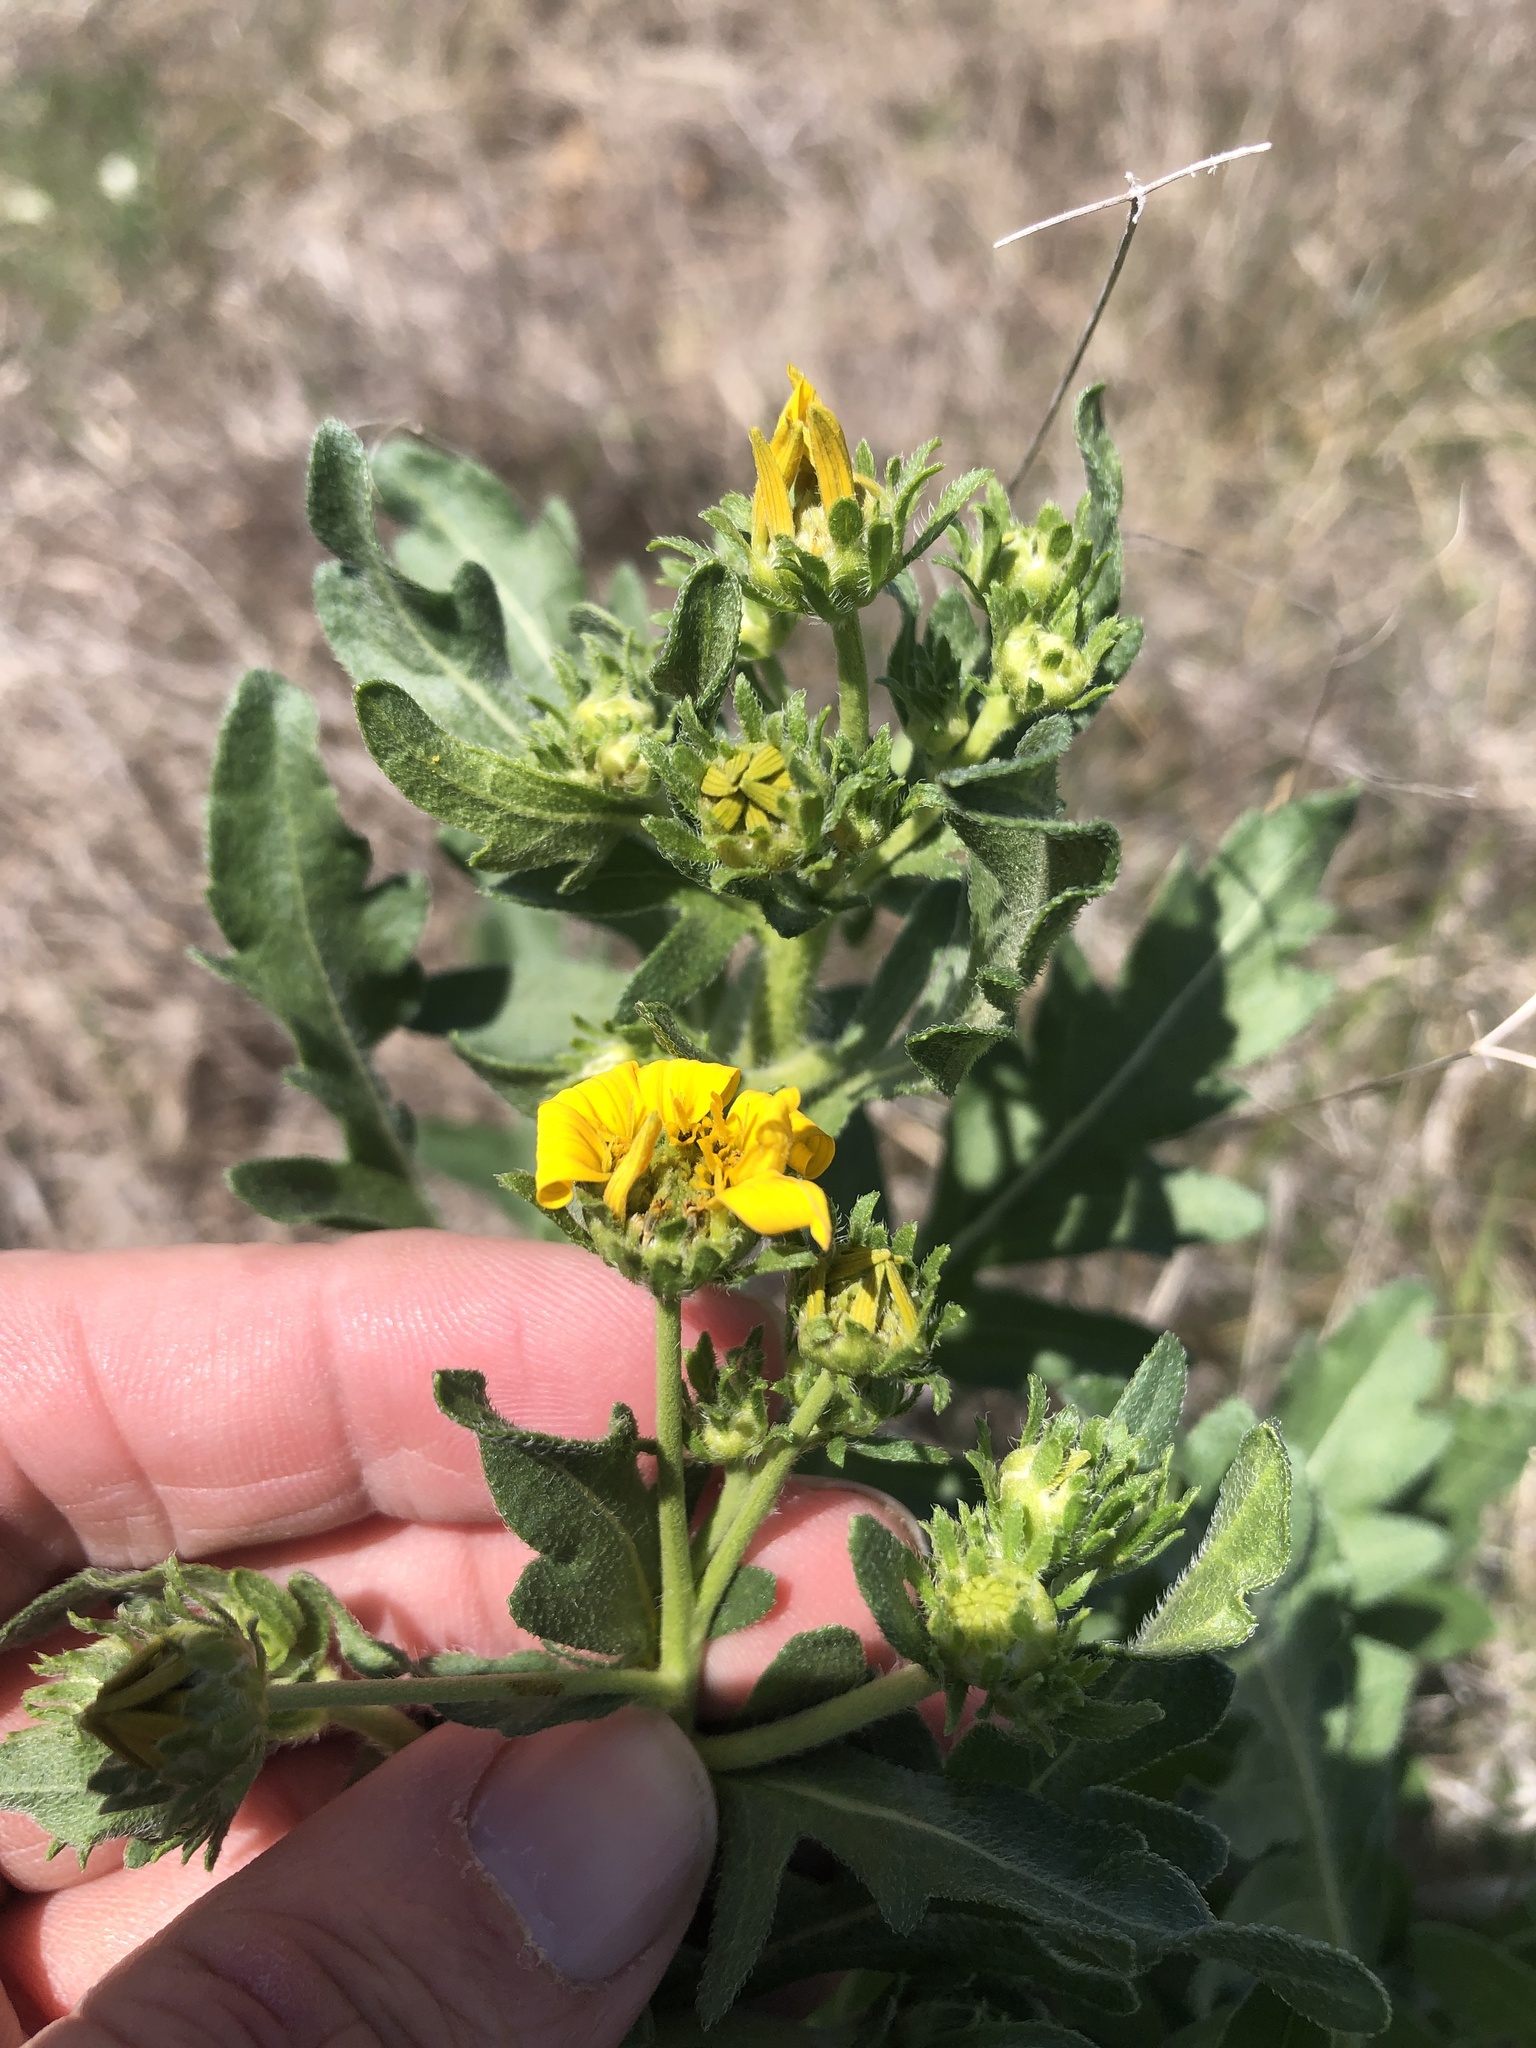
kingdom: Plantae
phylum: Tracheophyta
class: Magnoliopsida
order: Asterales
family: Asteraceae
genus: Engelmannia
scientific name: Engelmannia peristenia
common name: Engelmann's daisy
